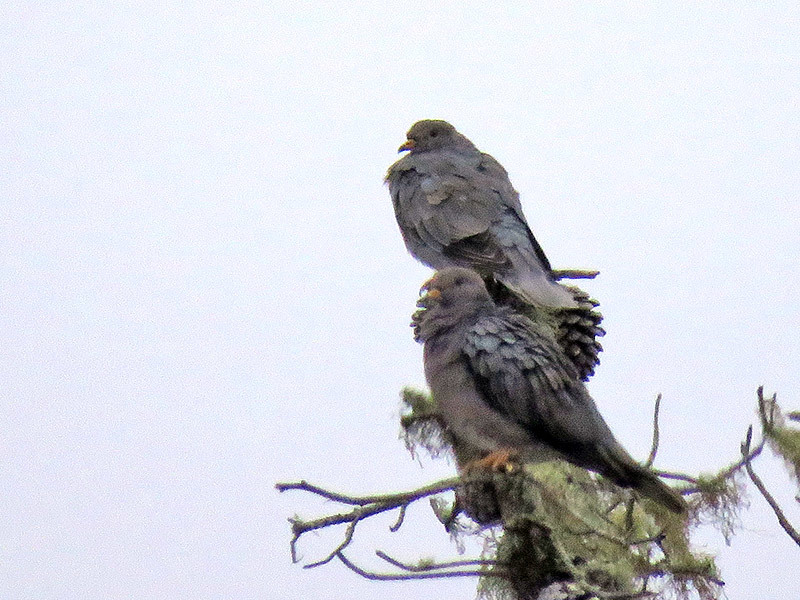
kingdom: Animalia
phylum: Chordata
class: Aves
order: Columbiformes
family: Columbidae
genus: Patagioenas
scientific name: Patagioenas fasciata
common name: Band-tailed pigeon
